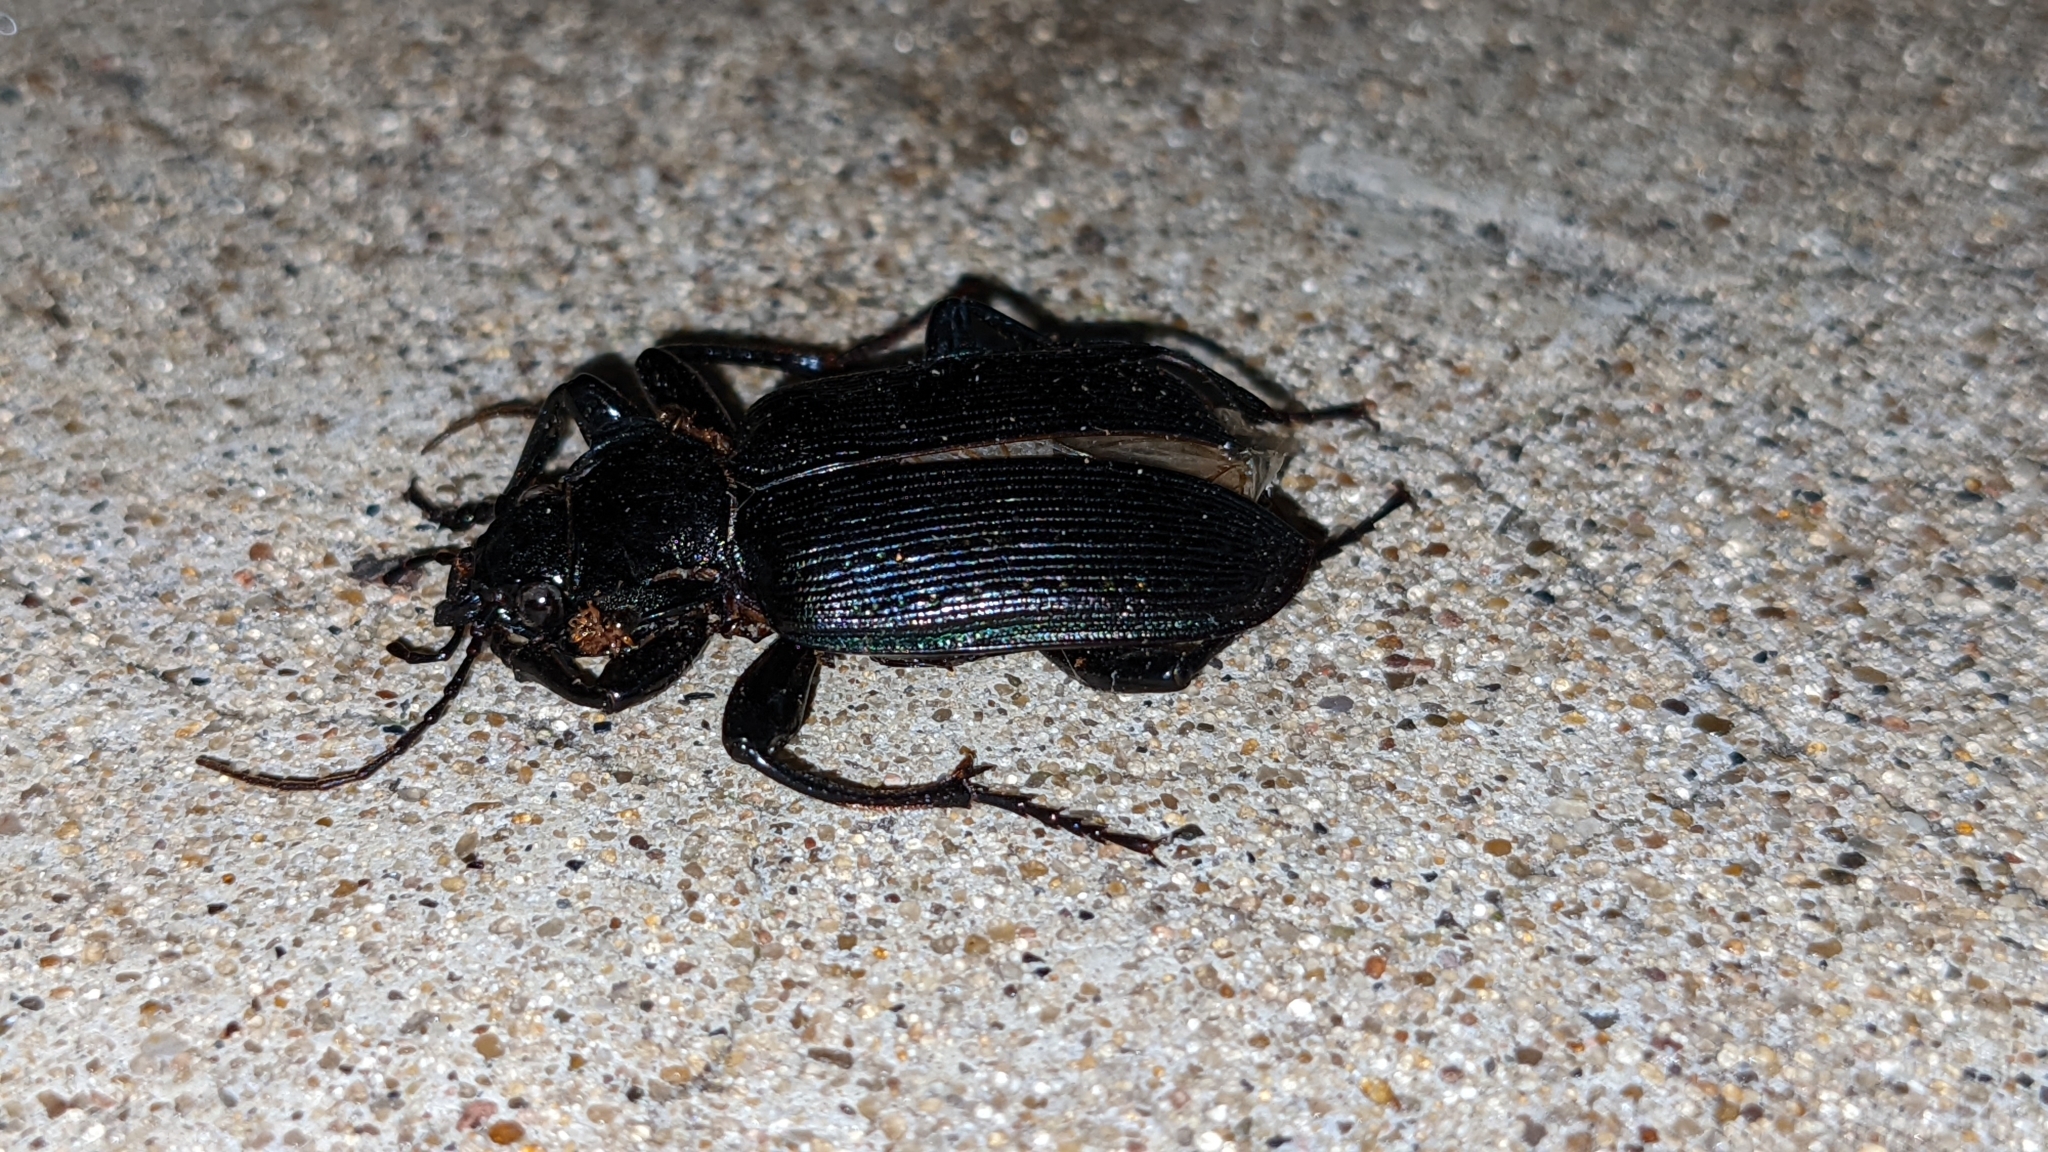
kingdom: Animalia
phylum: Arthropoda
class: Insecta
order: Coleoptera
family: Carabidae
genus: Calosoma
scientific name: Calosoma sayi
